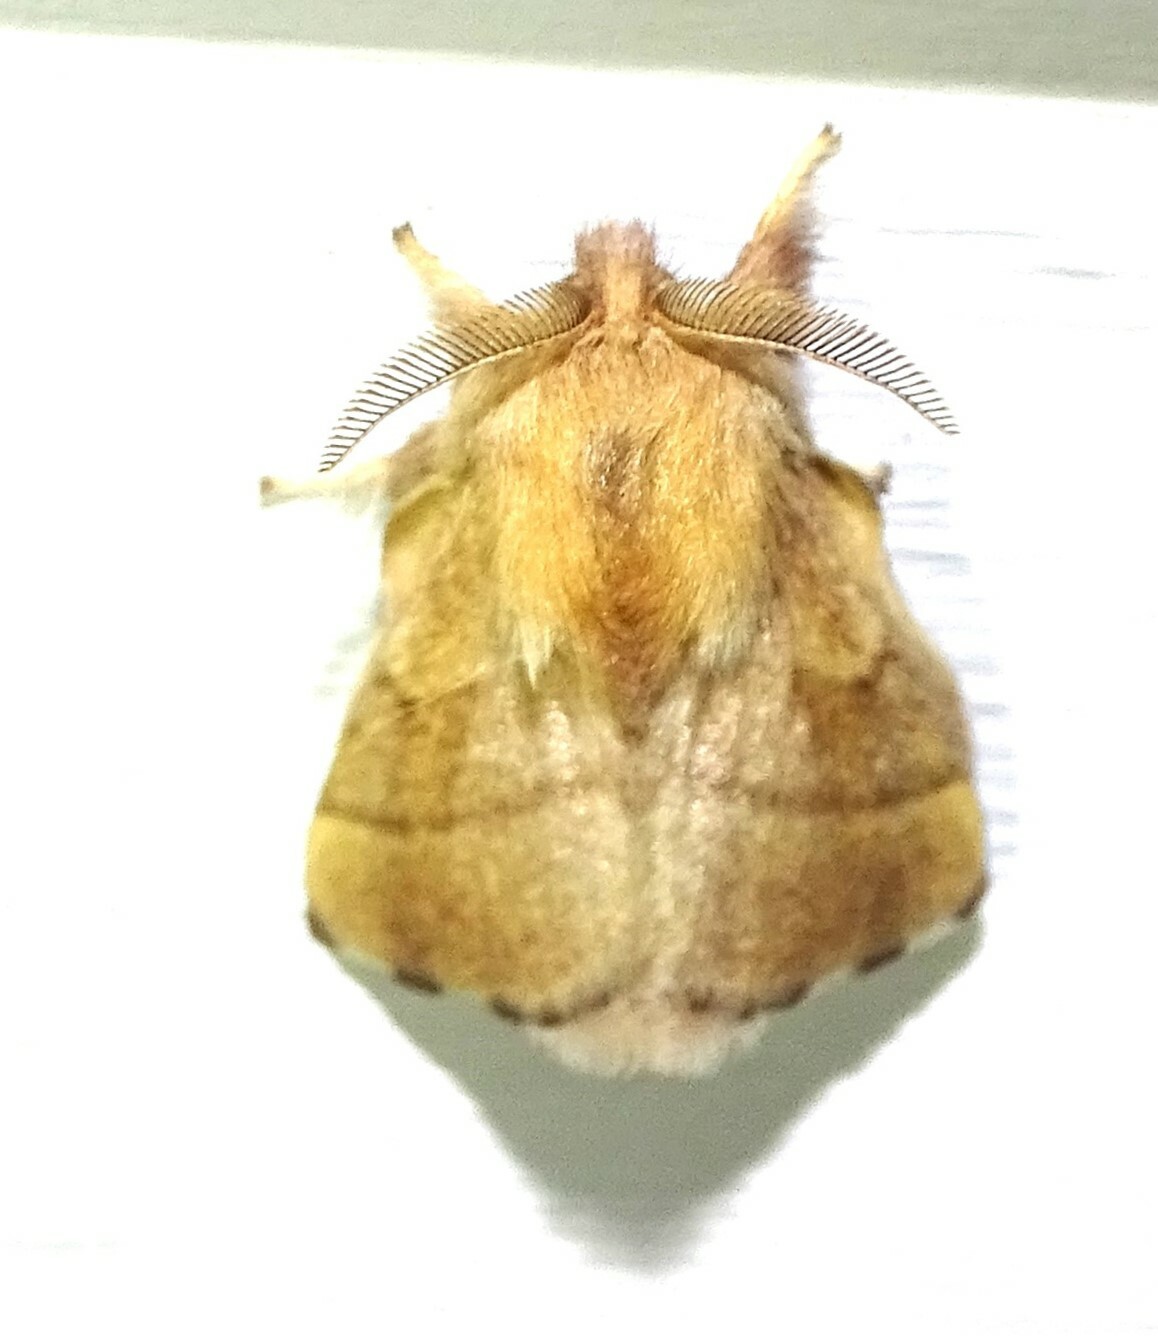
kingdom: Animalia
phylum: Arthropoda
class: Insecta
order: Lepidoptera
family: Lasiocampidae
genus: Malacosoma
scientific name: Malacosoma disstria
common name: Forest tent caterpillar
